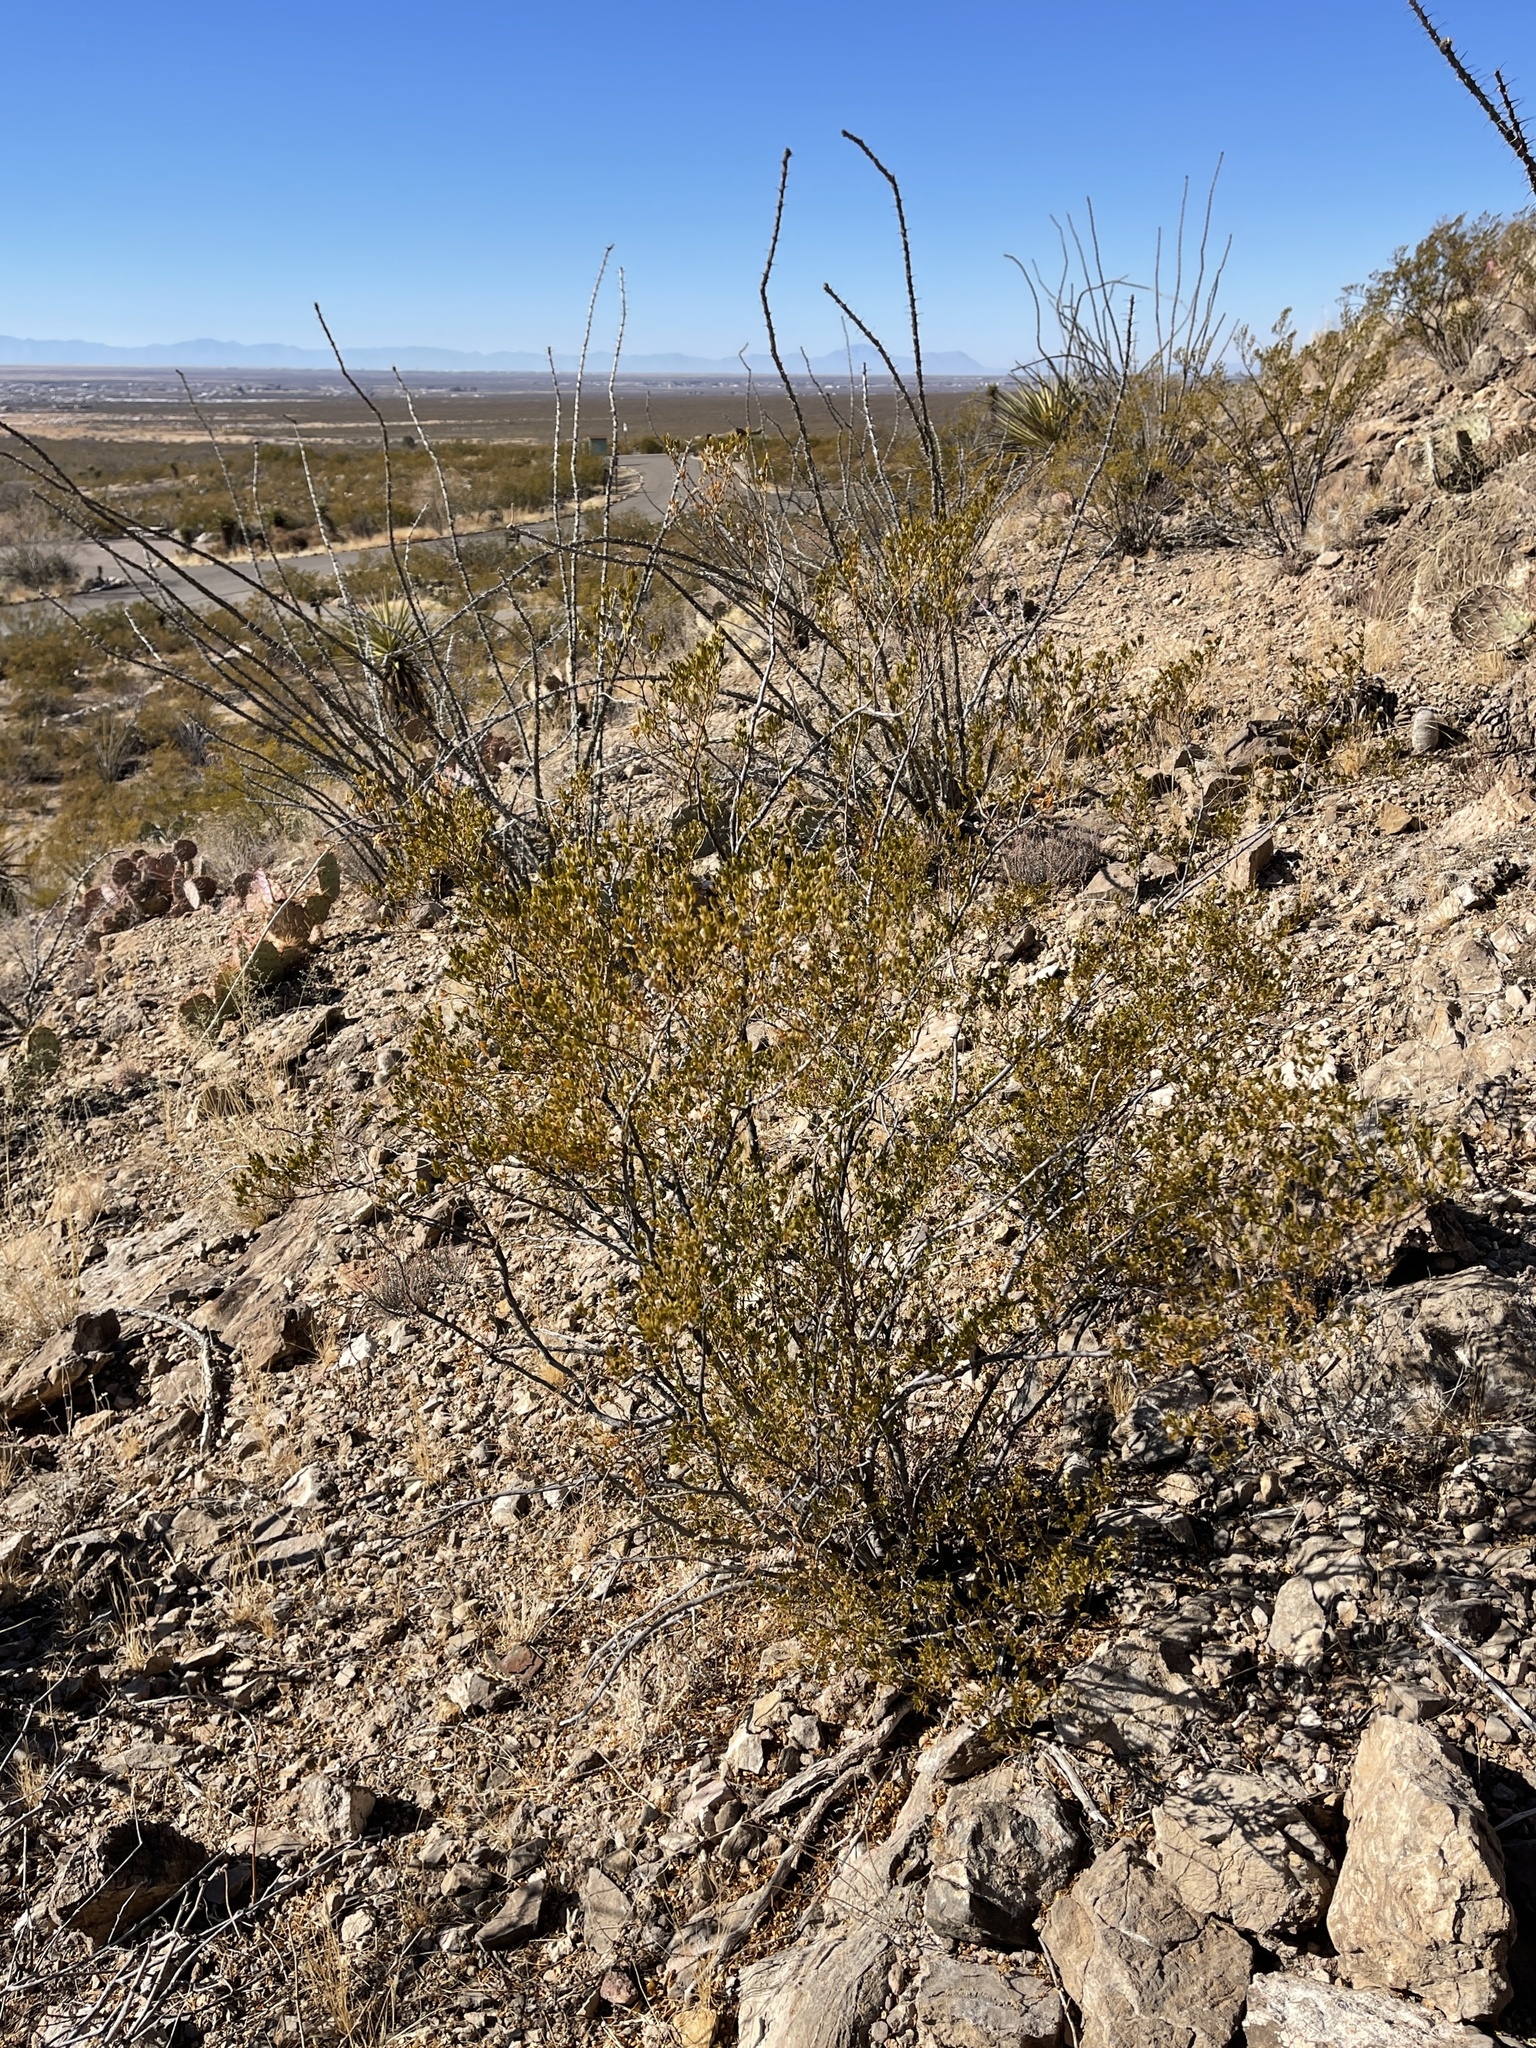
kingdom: Plantae
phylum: Tracheophyta
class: Magnoliopsida
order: Zygophyllales
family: Zygophyllaceae
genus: Larrea
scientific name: Larrea tridentata
